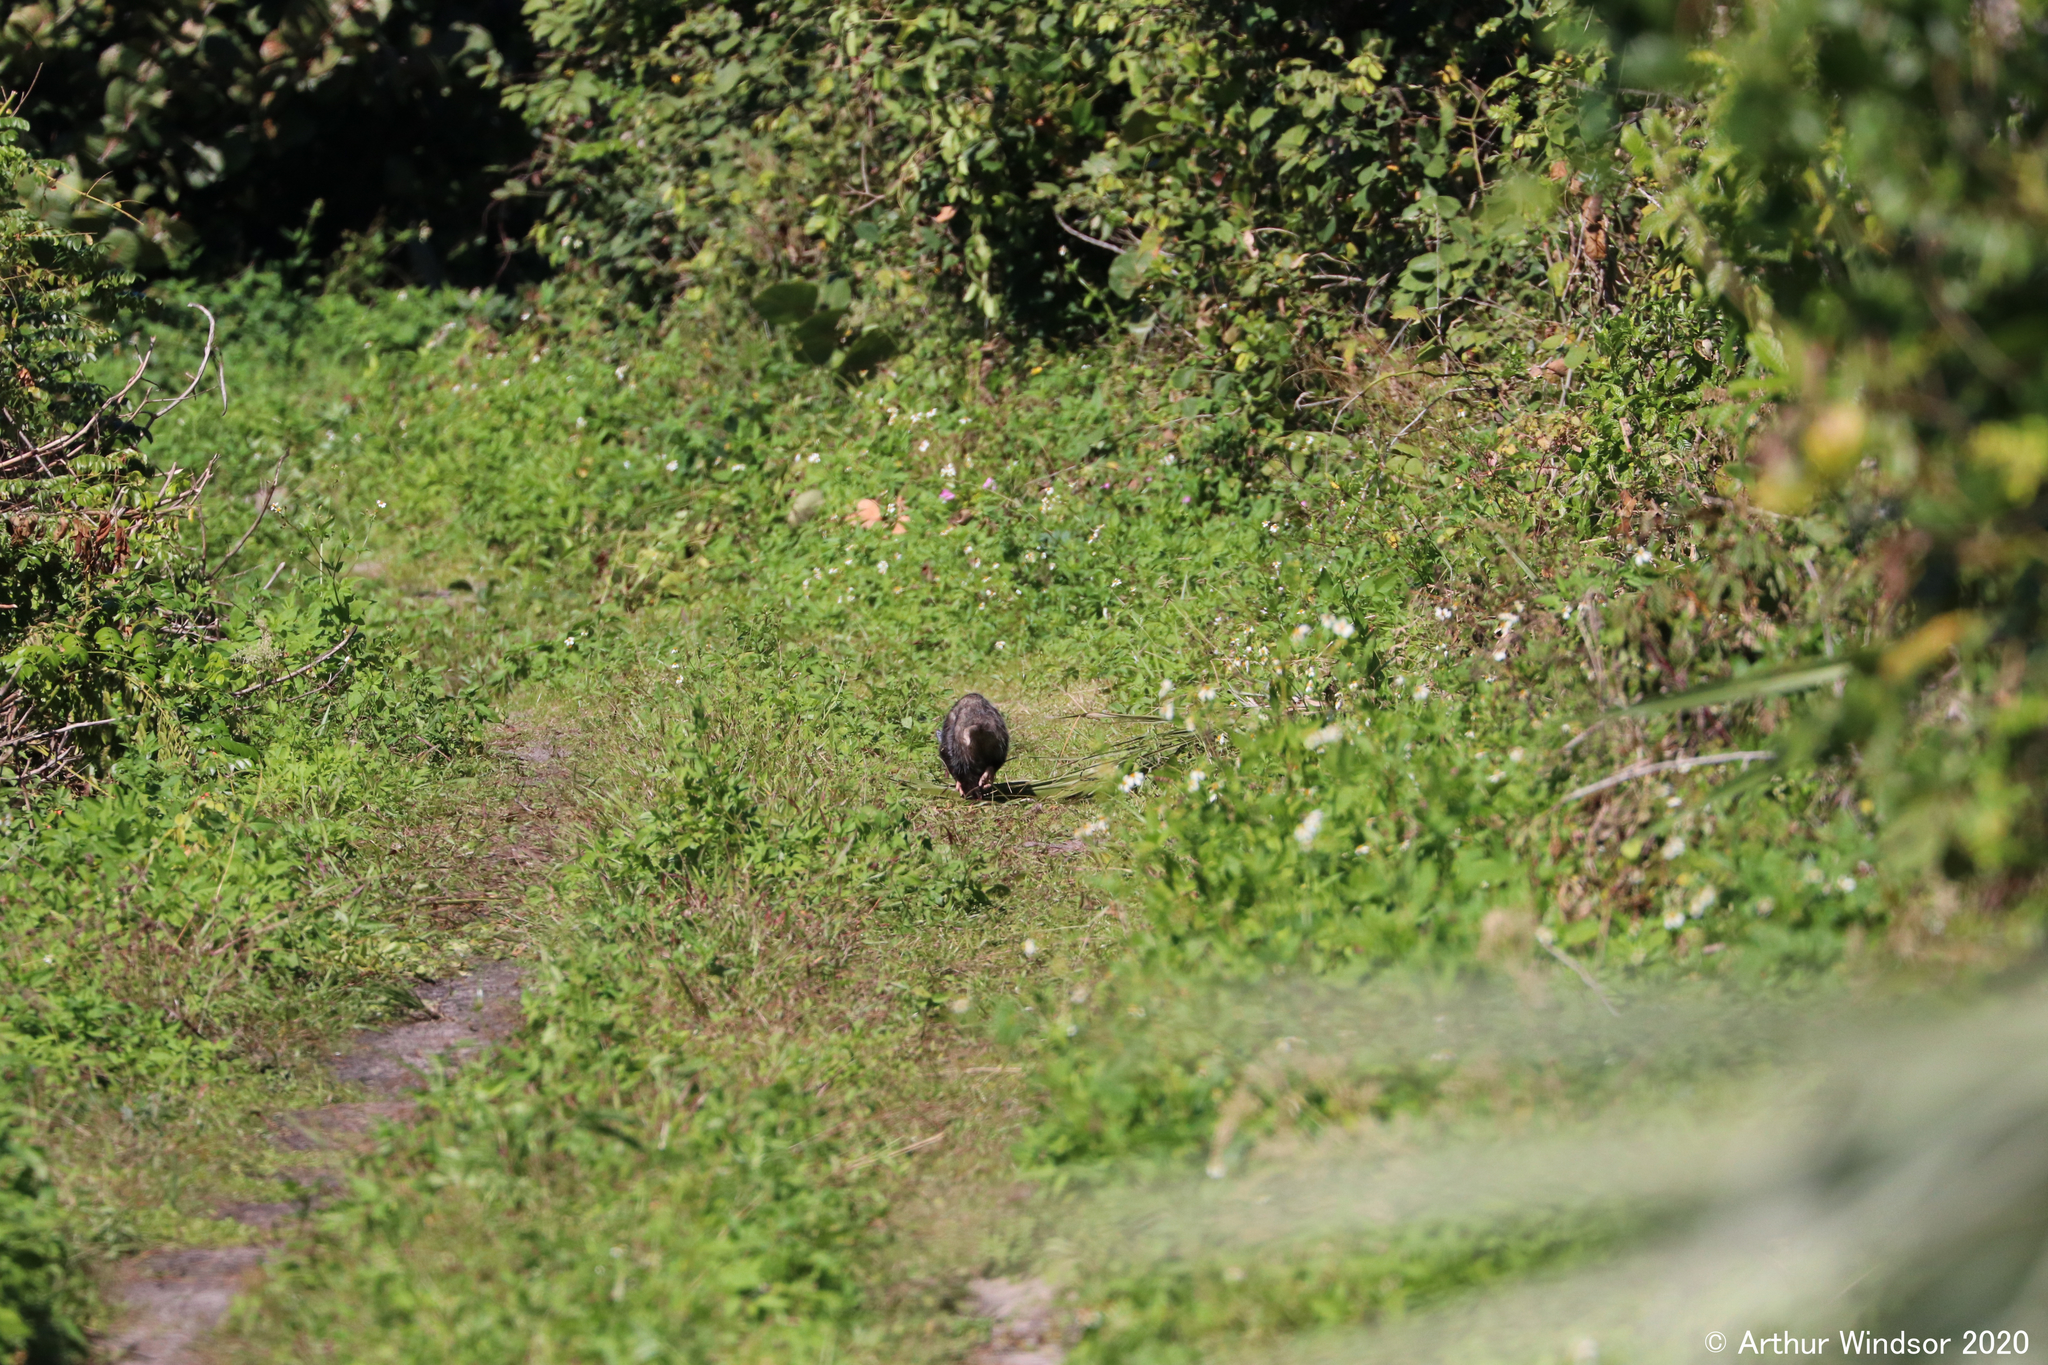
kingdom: Animalia
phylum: Chordata
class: Mammalia
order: Didelphimorphia
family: Didelphidae
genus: Didelphis
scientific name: Didelphis virginiana
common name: Virginia opossum
